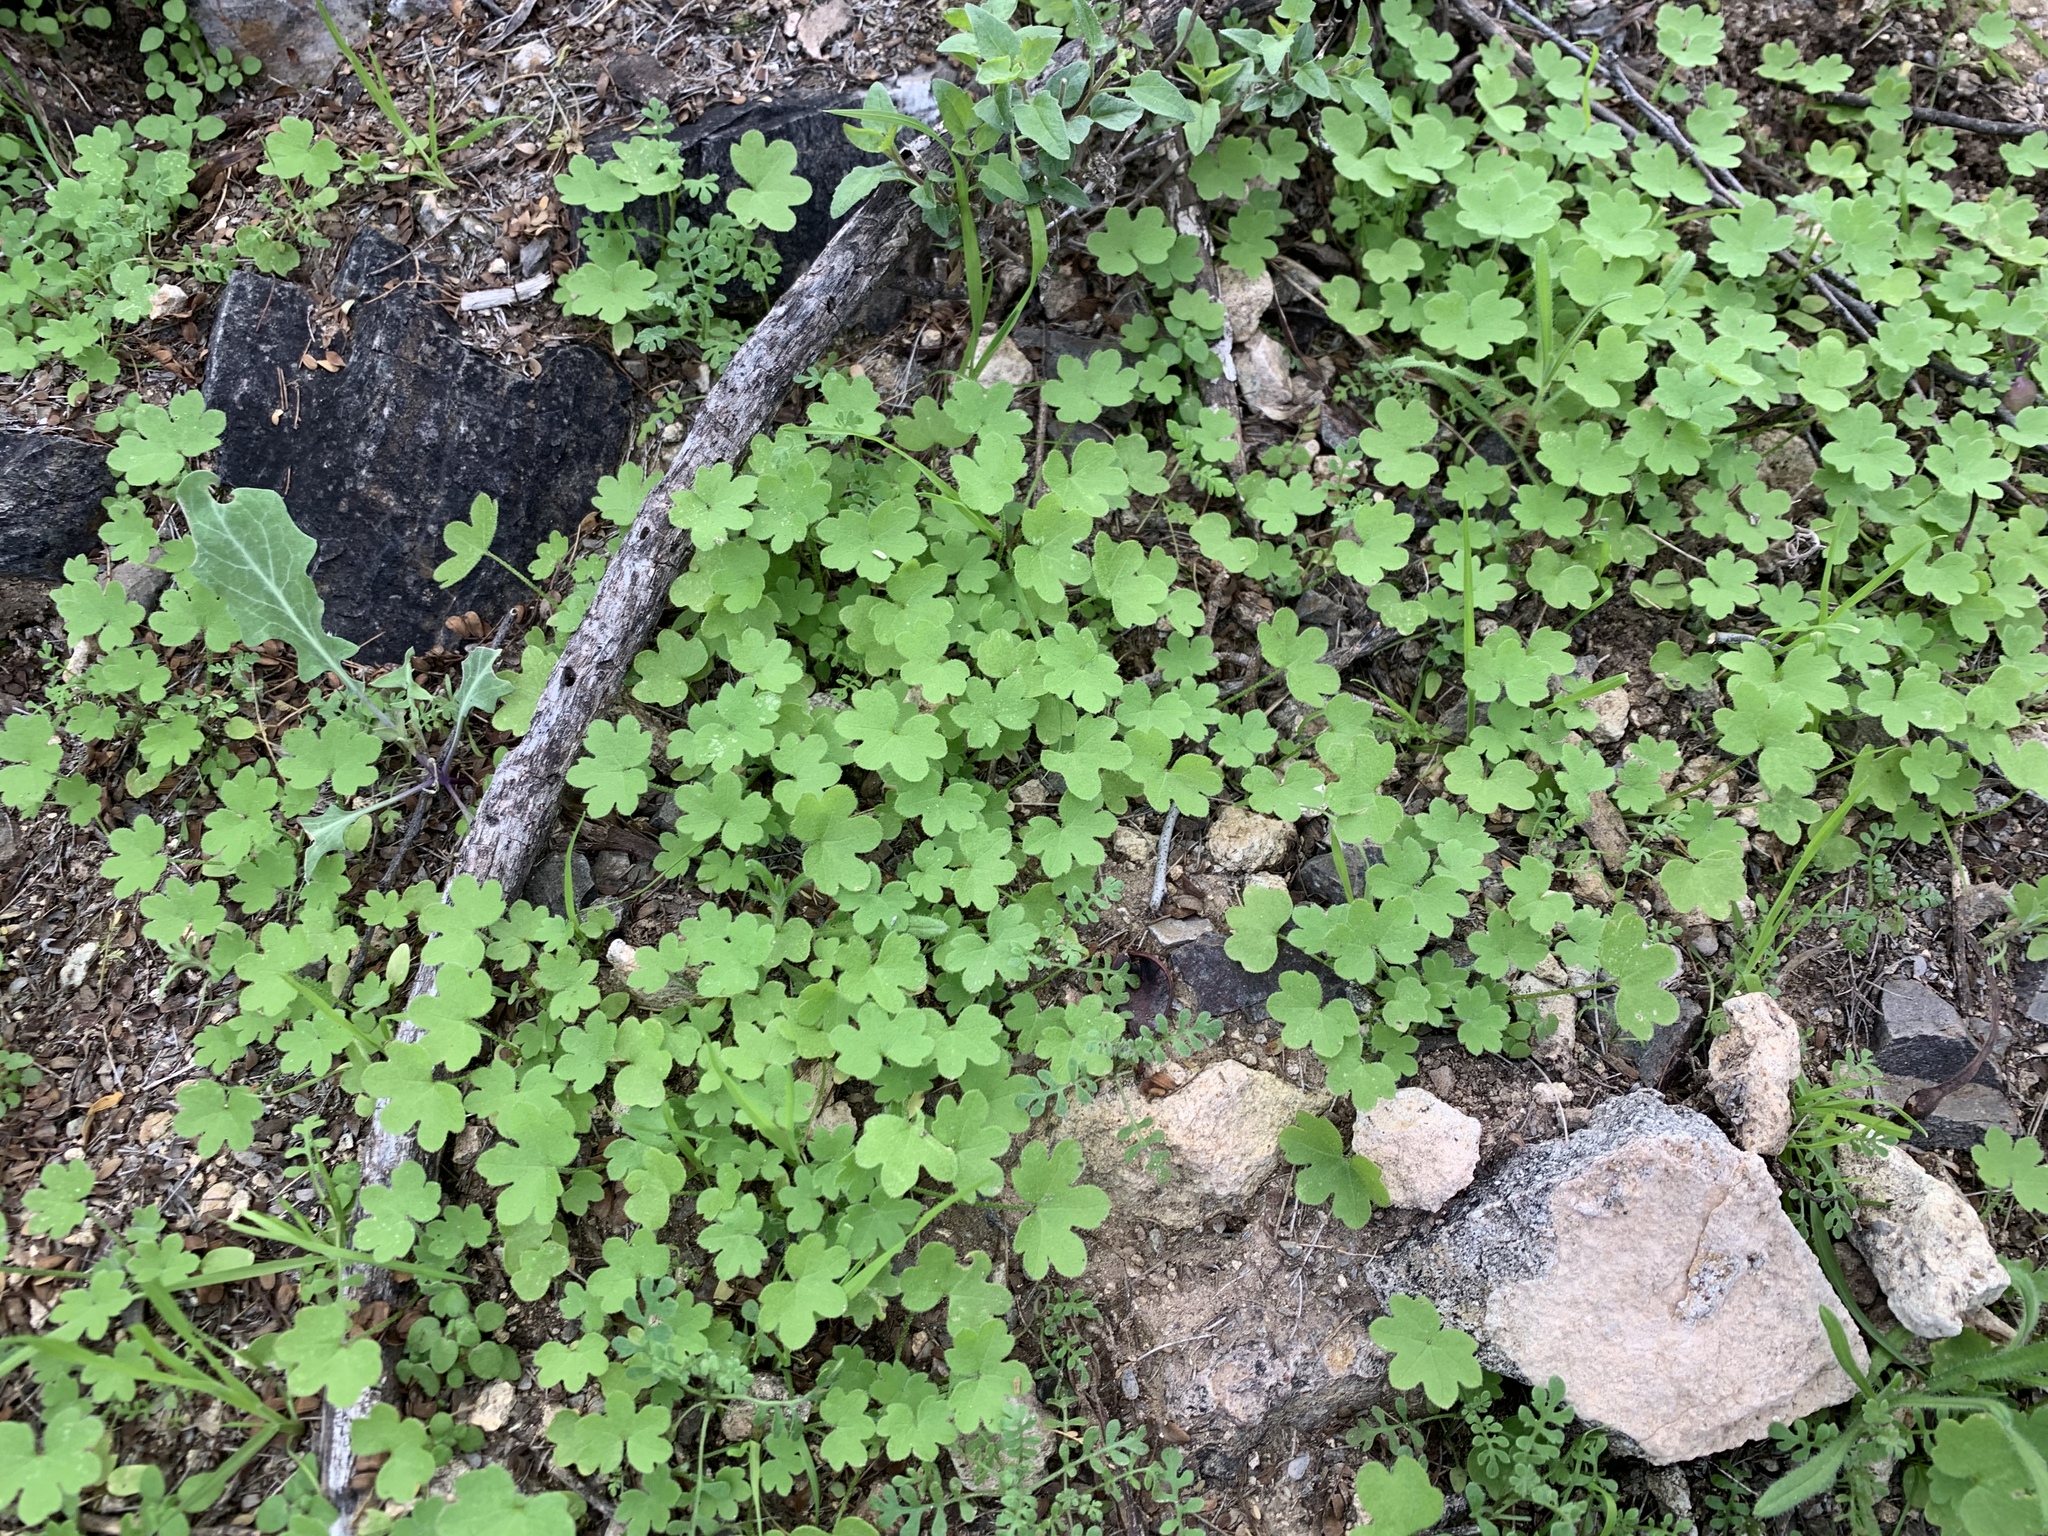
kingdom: Plantae
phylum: Tracheophyta
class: Magnoliopsida
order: Apiales
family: Apiaceae
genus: Bowlesia
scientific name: Bowlesia incana
